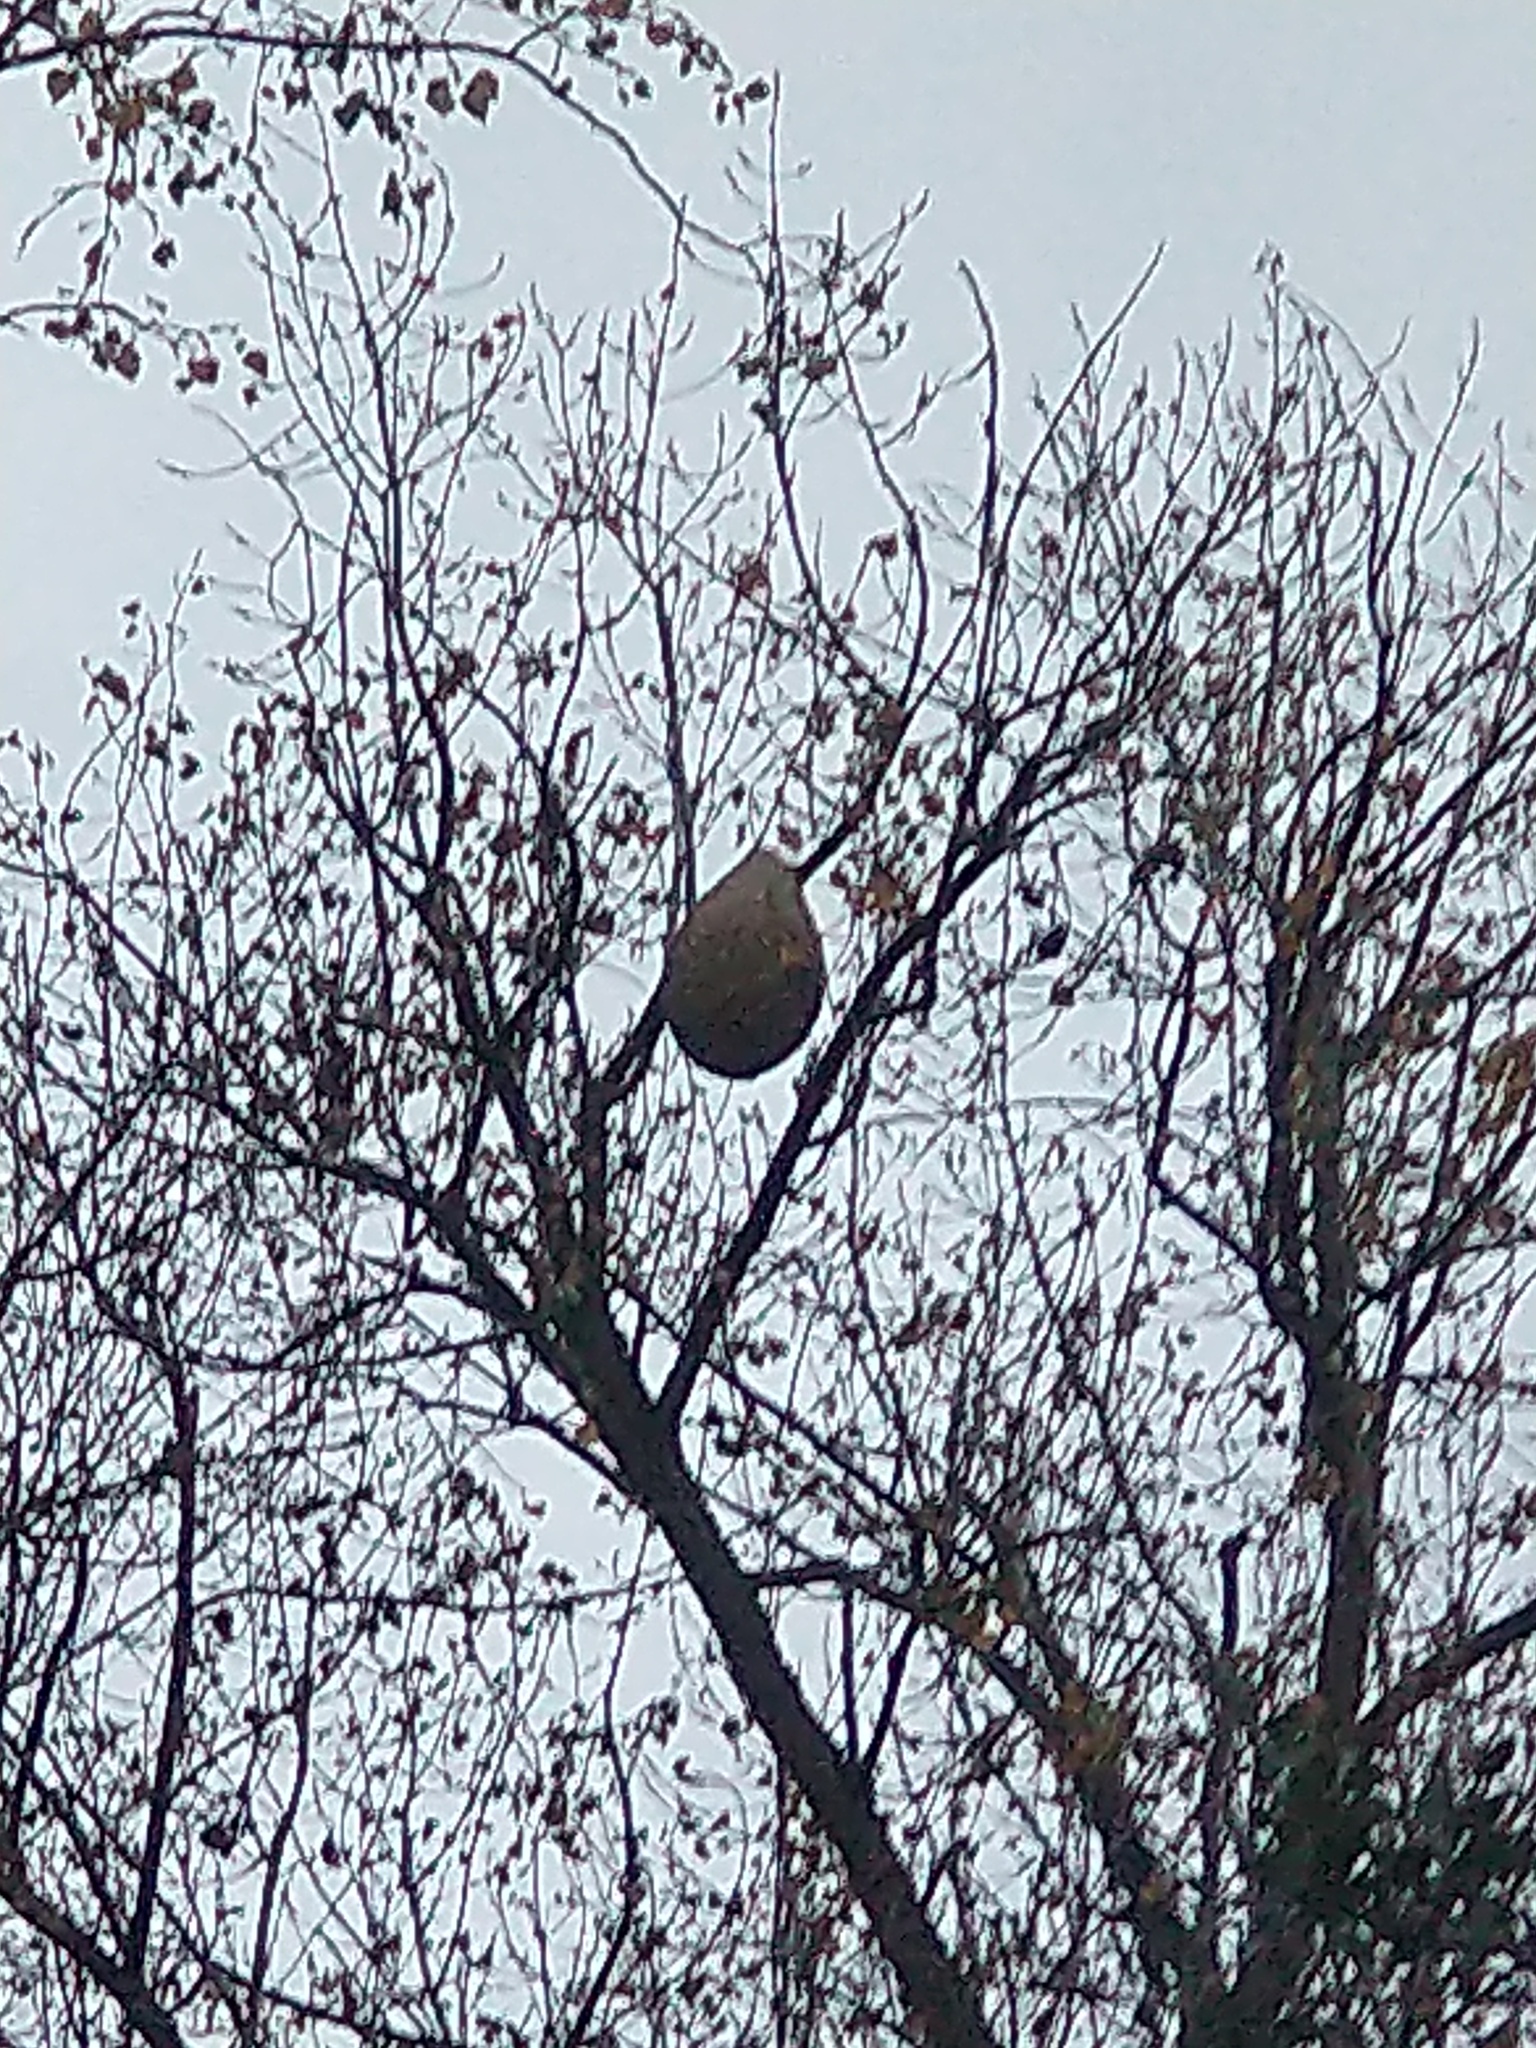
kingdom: Animalia
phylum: Arthropoda
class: Insecta
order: Hymenoptera
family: Vespidae
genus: Vespa
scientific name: Vespa velutina
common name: Asian hornet
